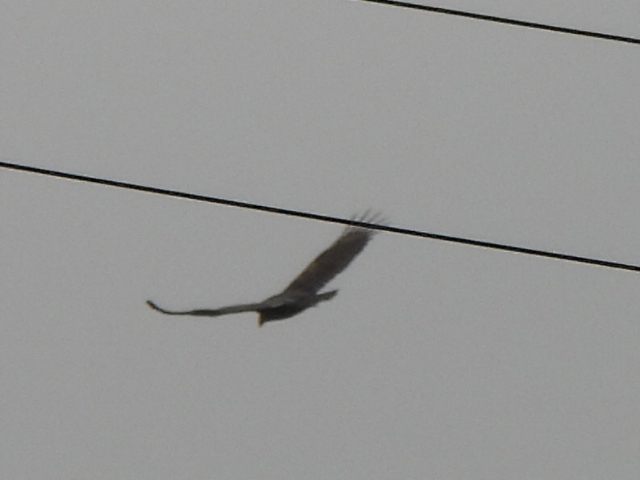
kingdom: Animalia
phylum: Chordata
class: Aves
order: Accipitriformes
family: Cathartidae
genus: Cathartes
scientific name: Cathartes aura
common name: Turkey vulture
